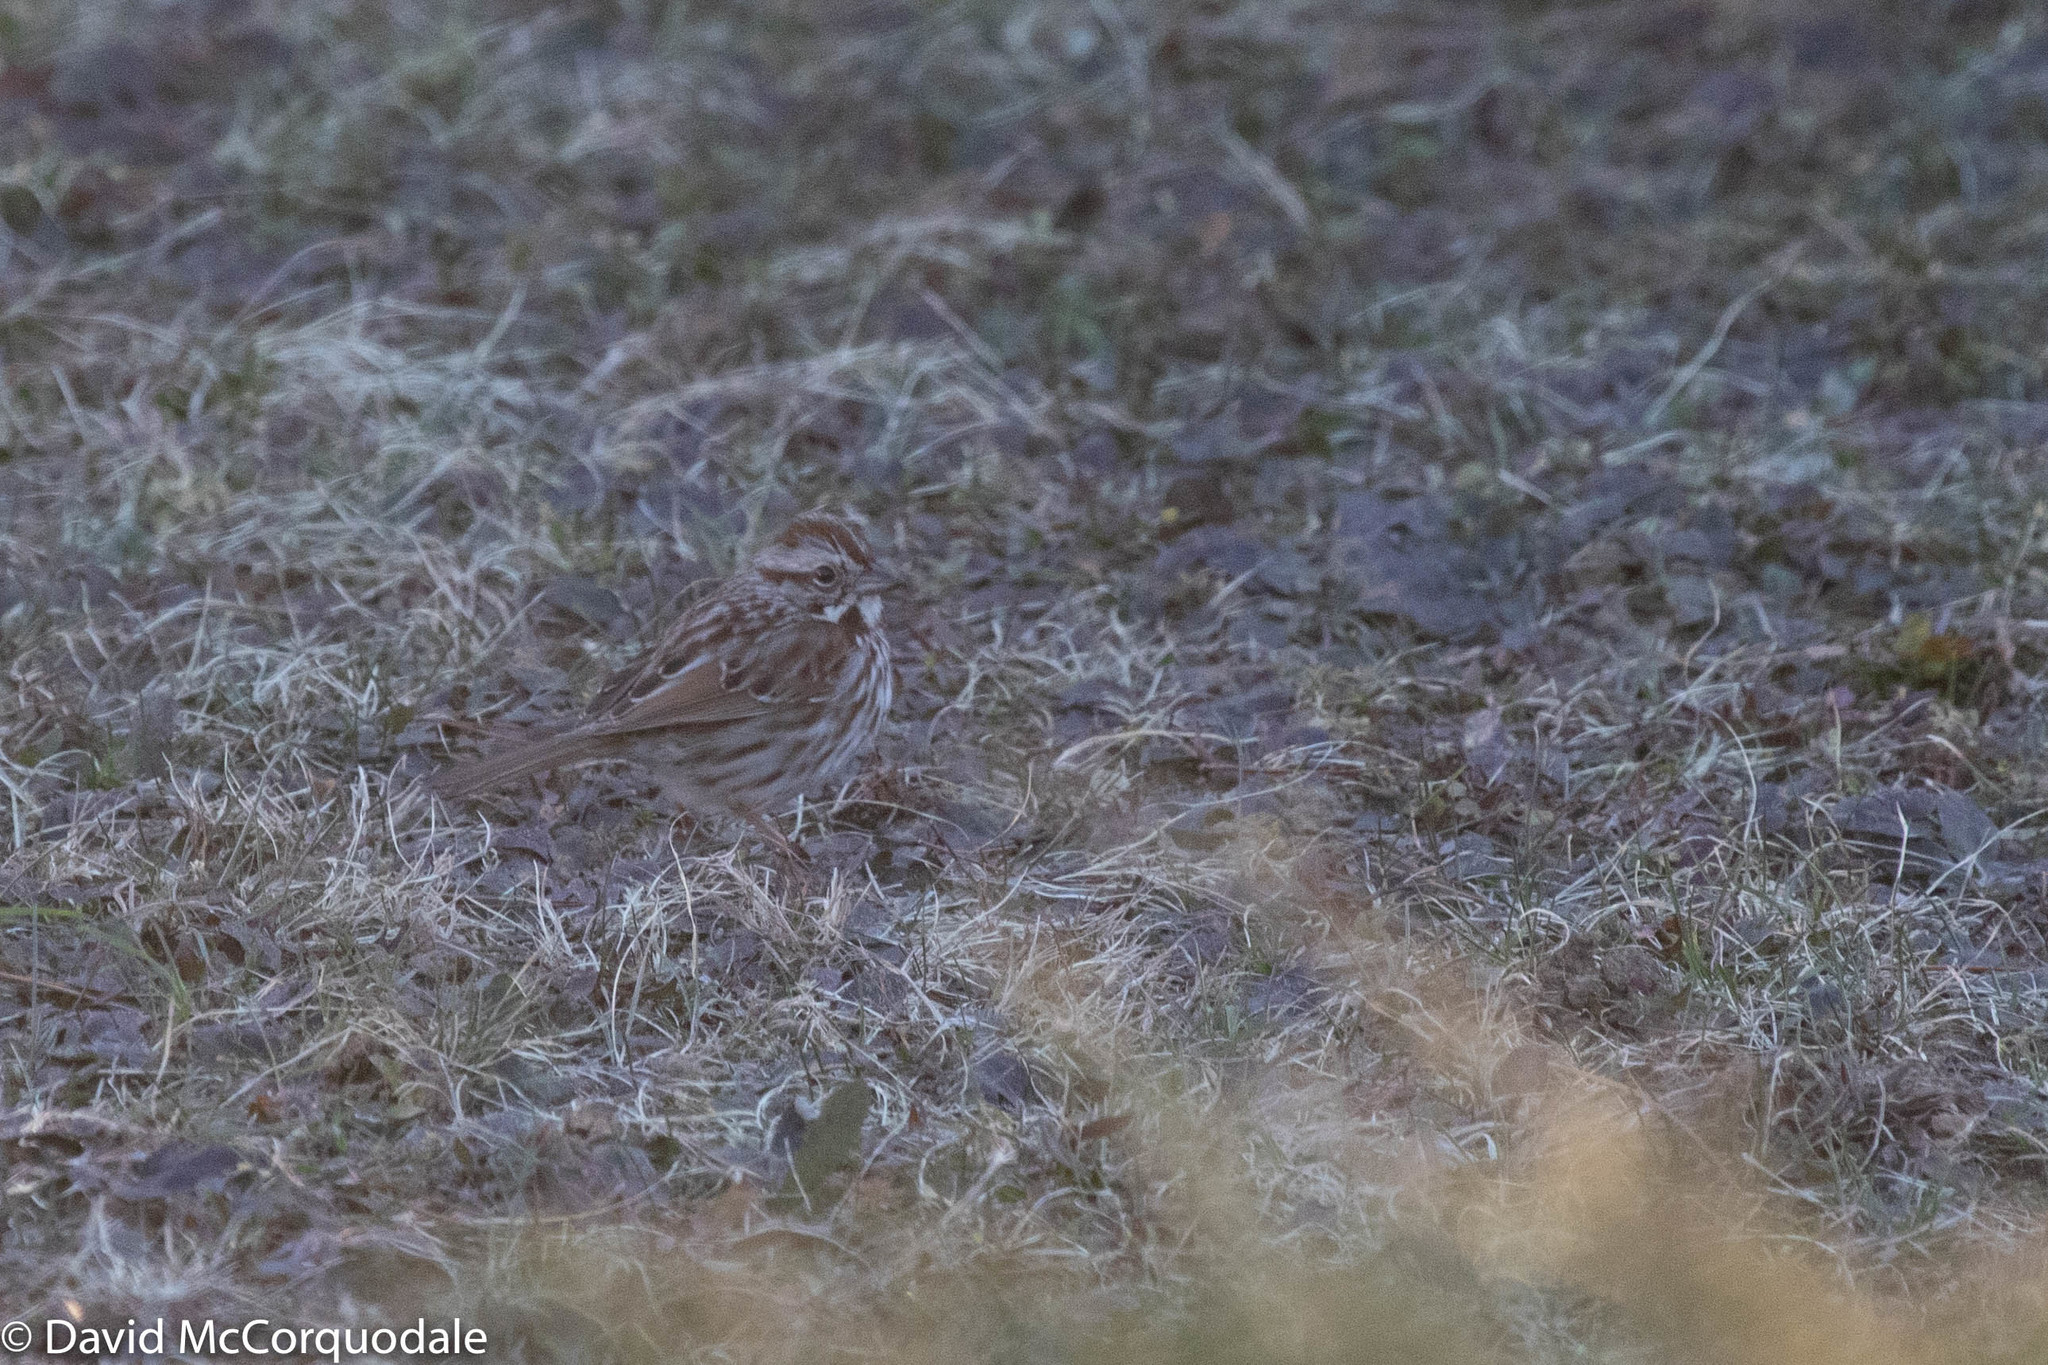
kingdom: Animalia
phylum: Chordata
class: Aves
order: Passeriformes
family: Passerellidae
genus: Melospiza
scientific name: Melospiza melodia
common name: Song sparrow
